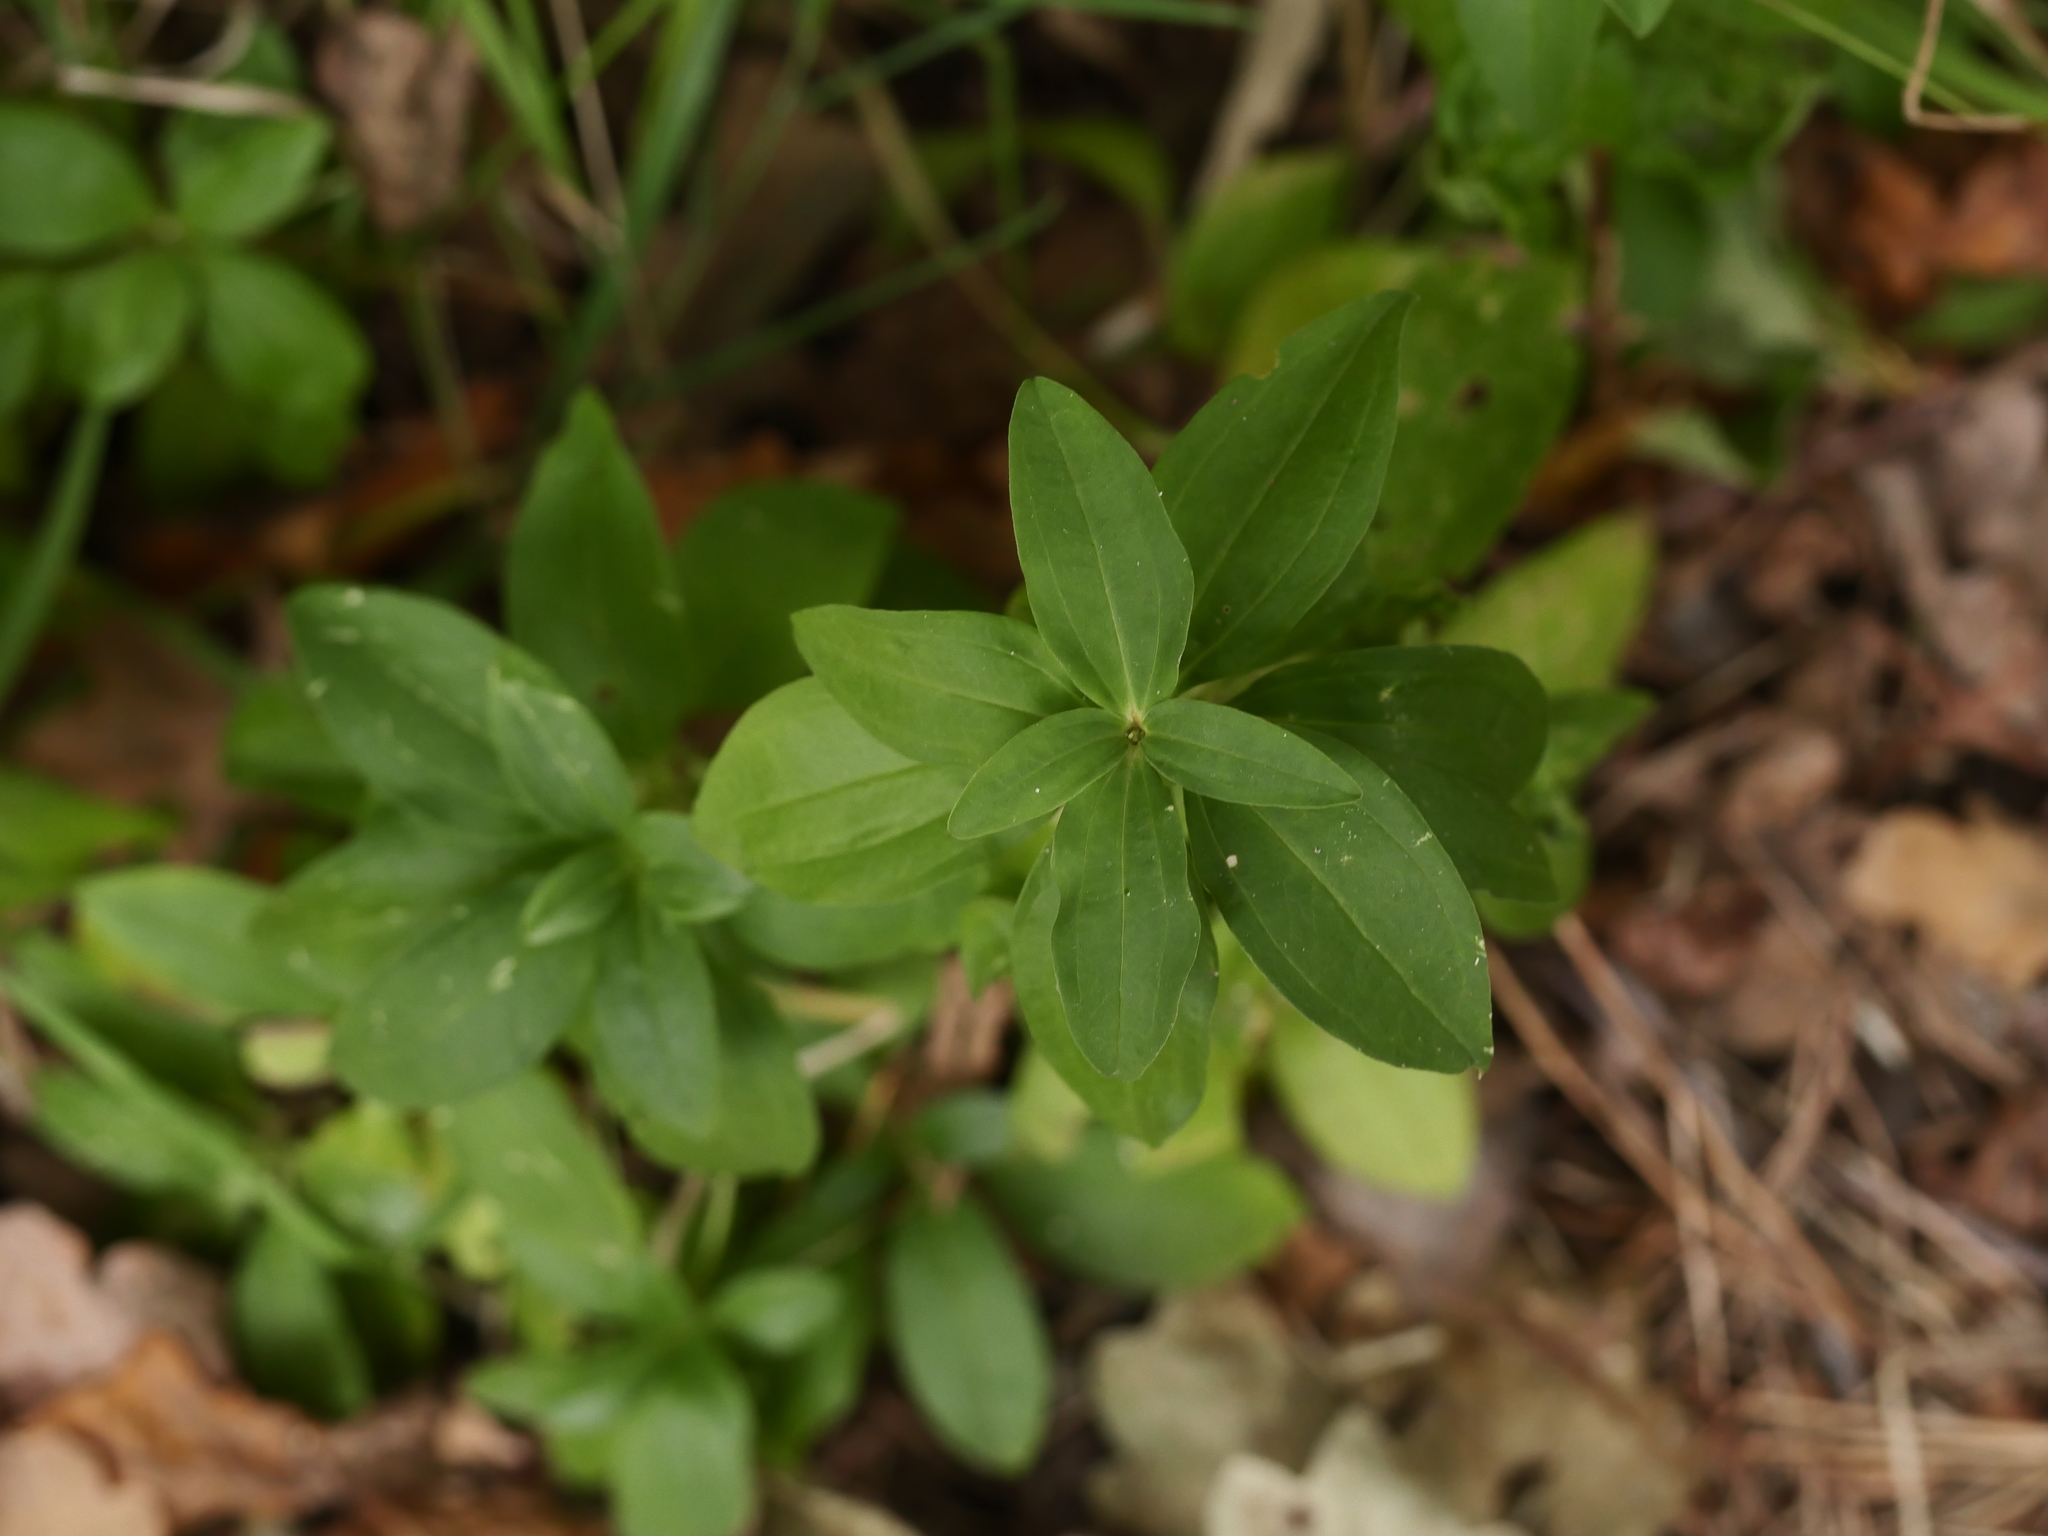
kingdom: Plantae
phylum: Tracheophyta
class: Magnoliopsida
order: Caryophyllales
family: Caryophyllaceae
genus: Saponaria
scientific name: Saponaria officinalis
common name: Soapwort
